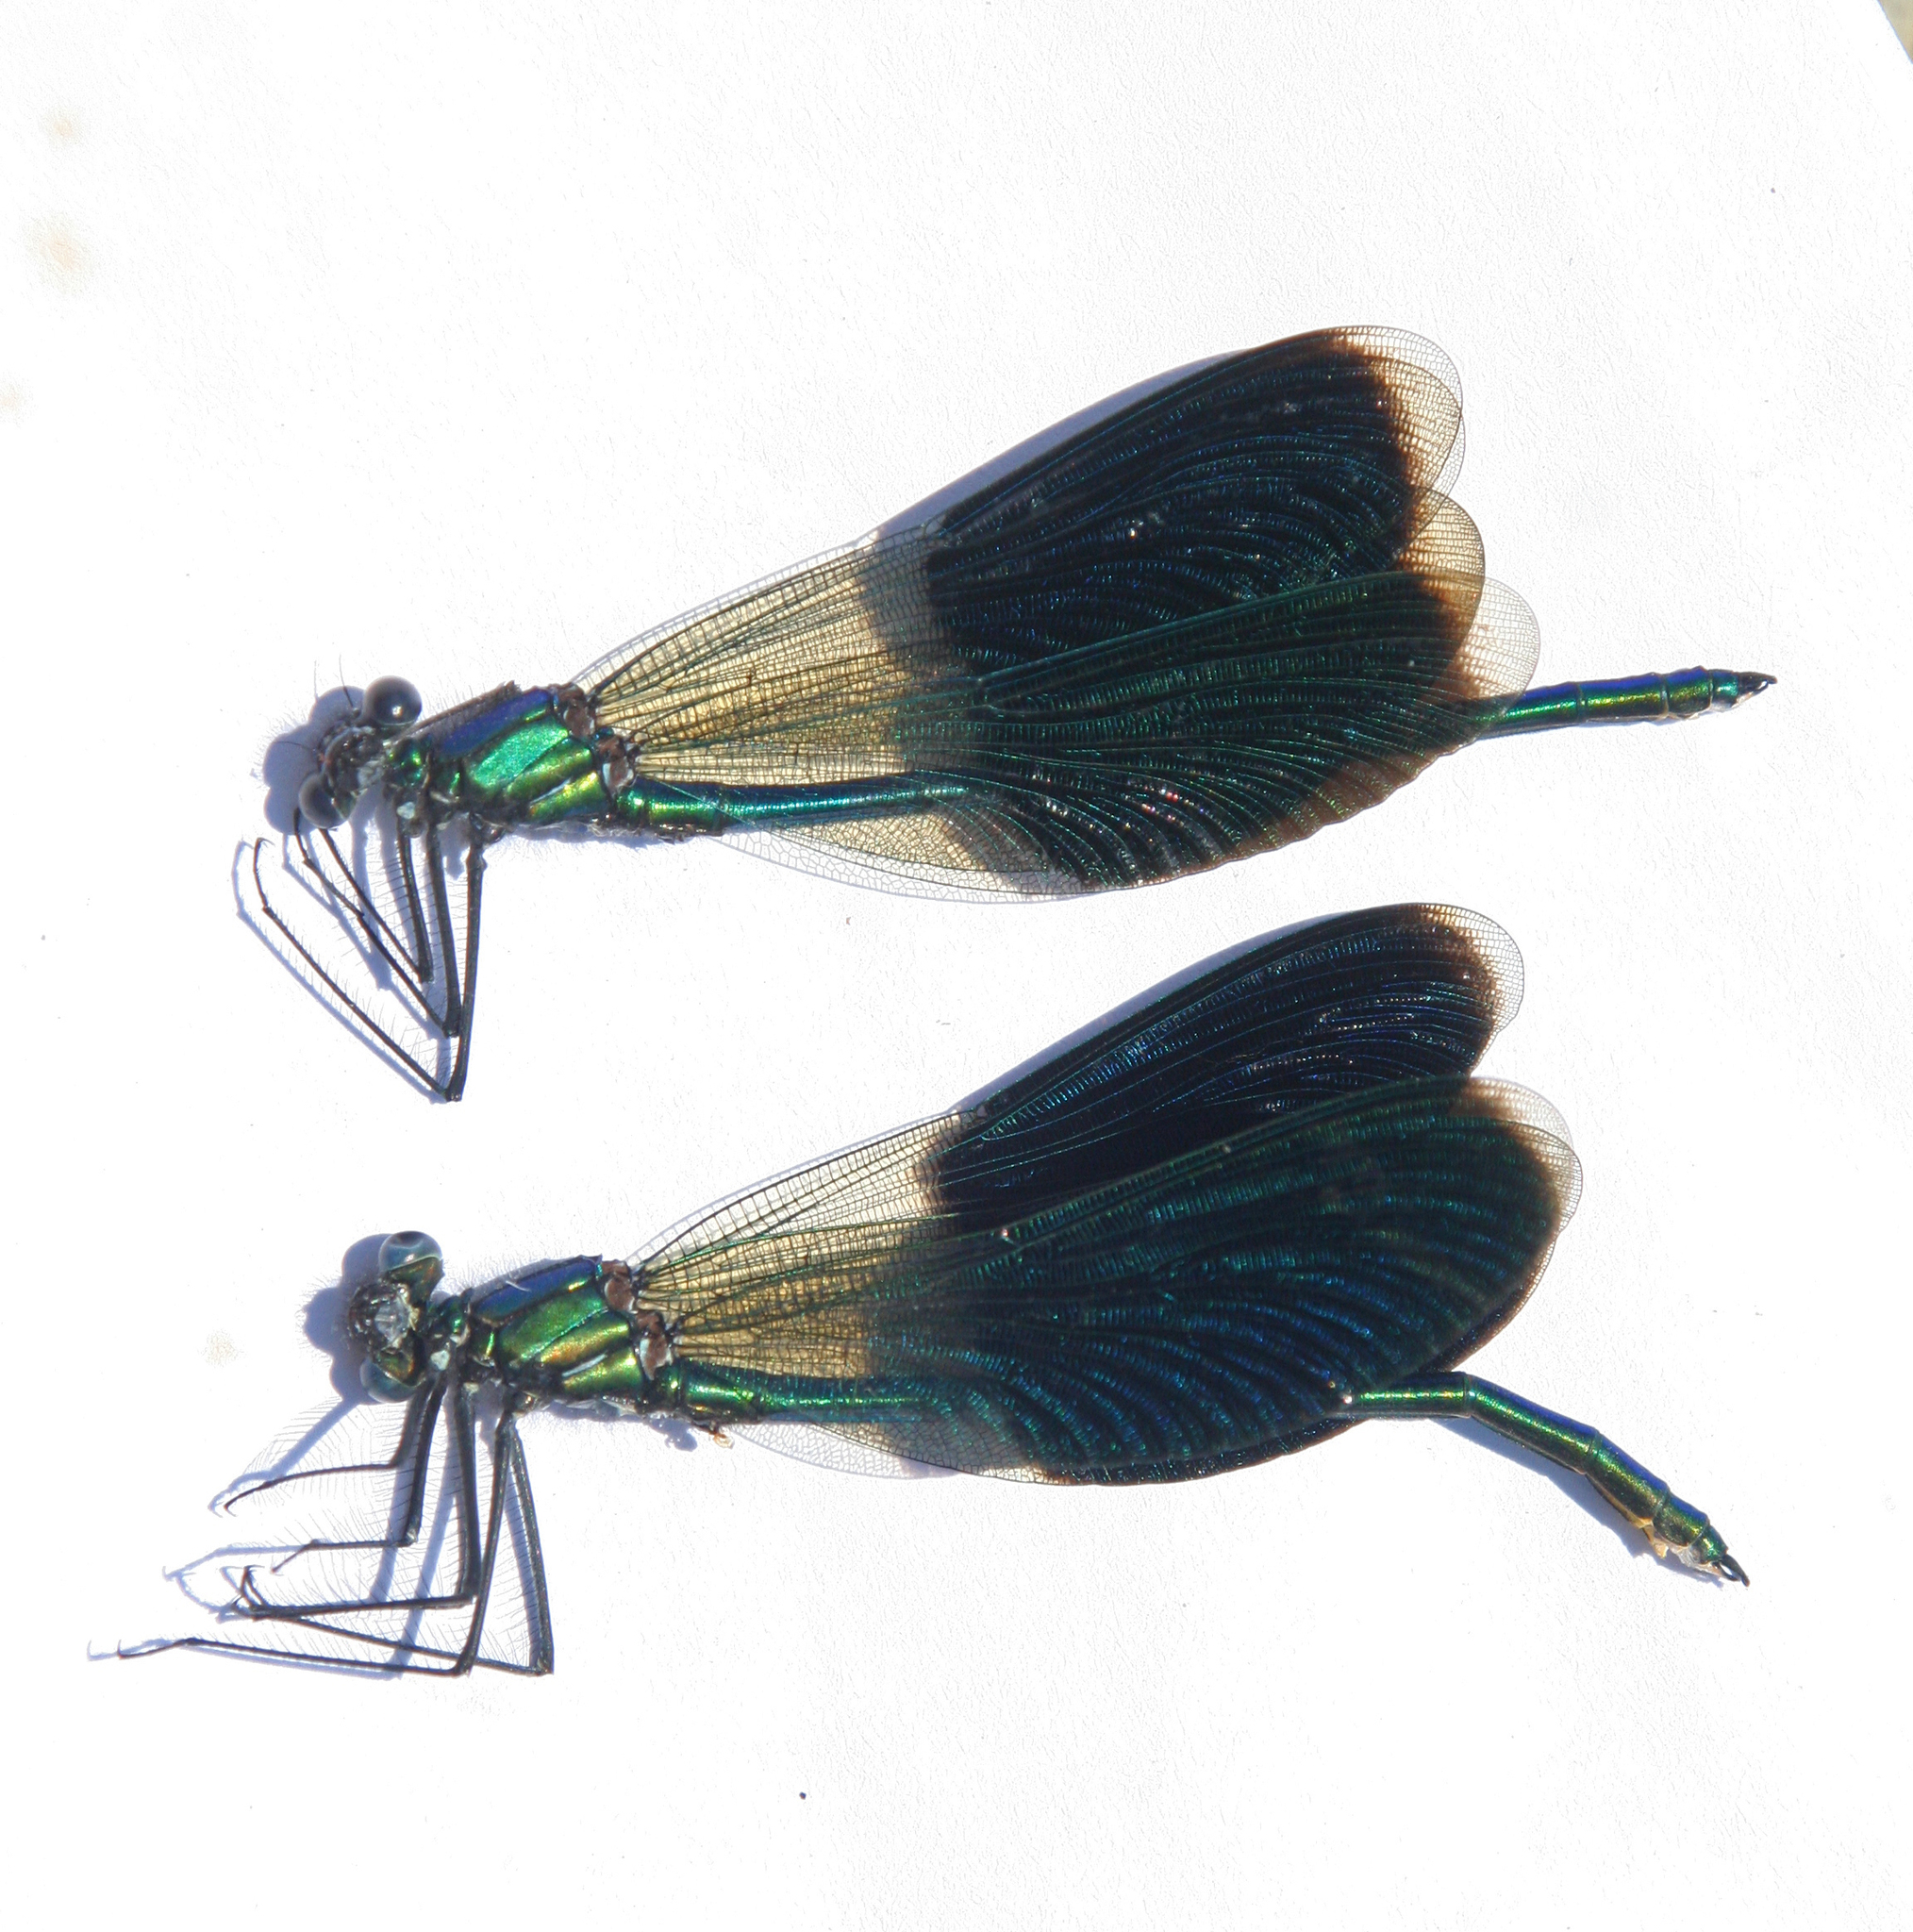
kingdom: Animalia
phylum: Arthropoda
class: Insecta
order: Odonata
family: Calopterygidae
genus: Calopteryx
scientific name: Calopteryx splendens
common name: Banded demoiselle
